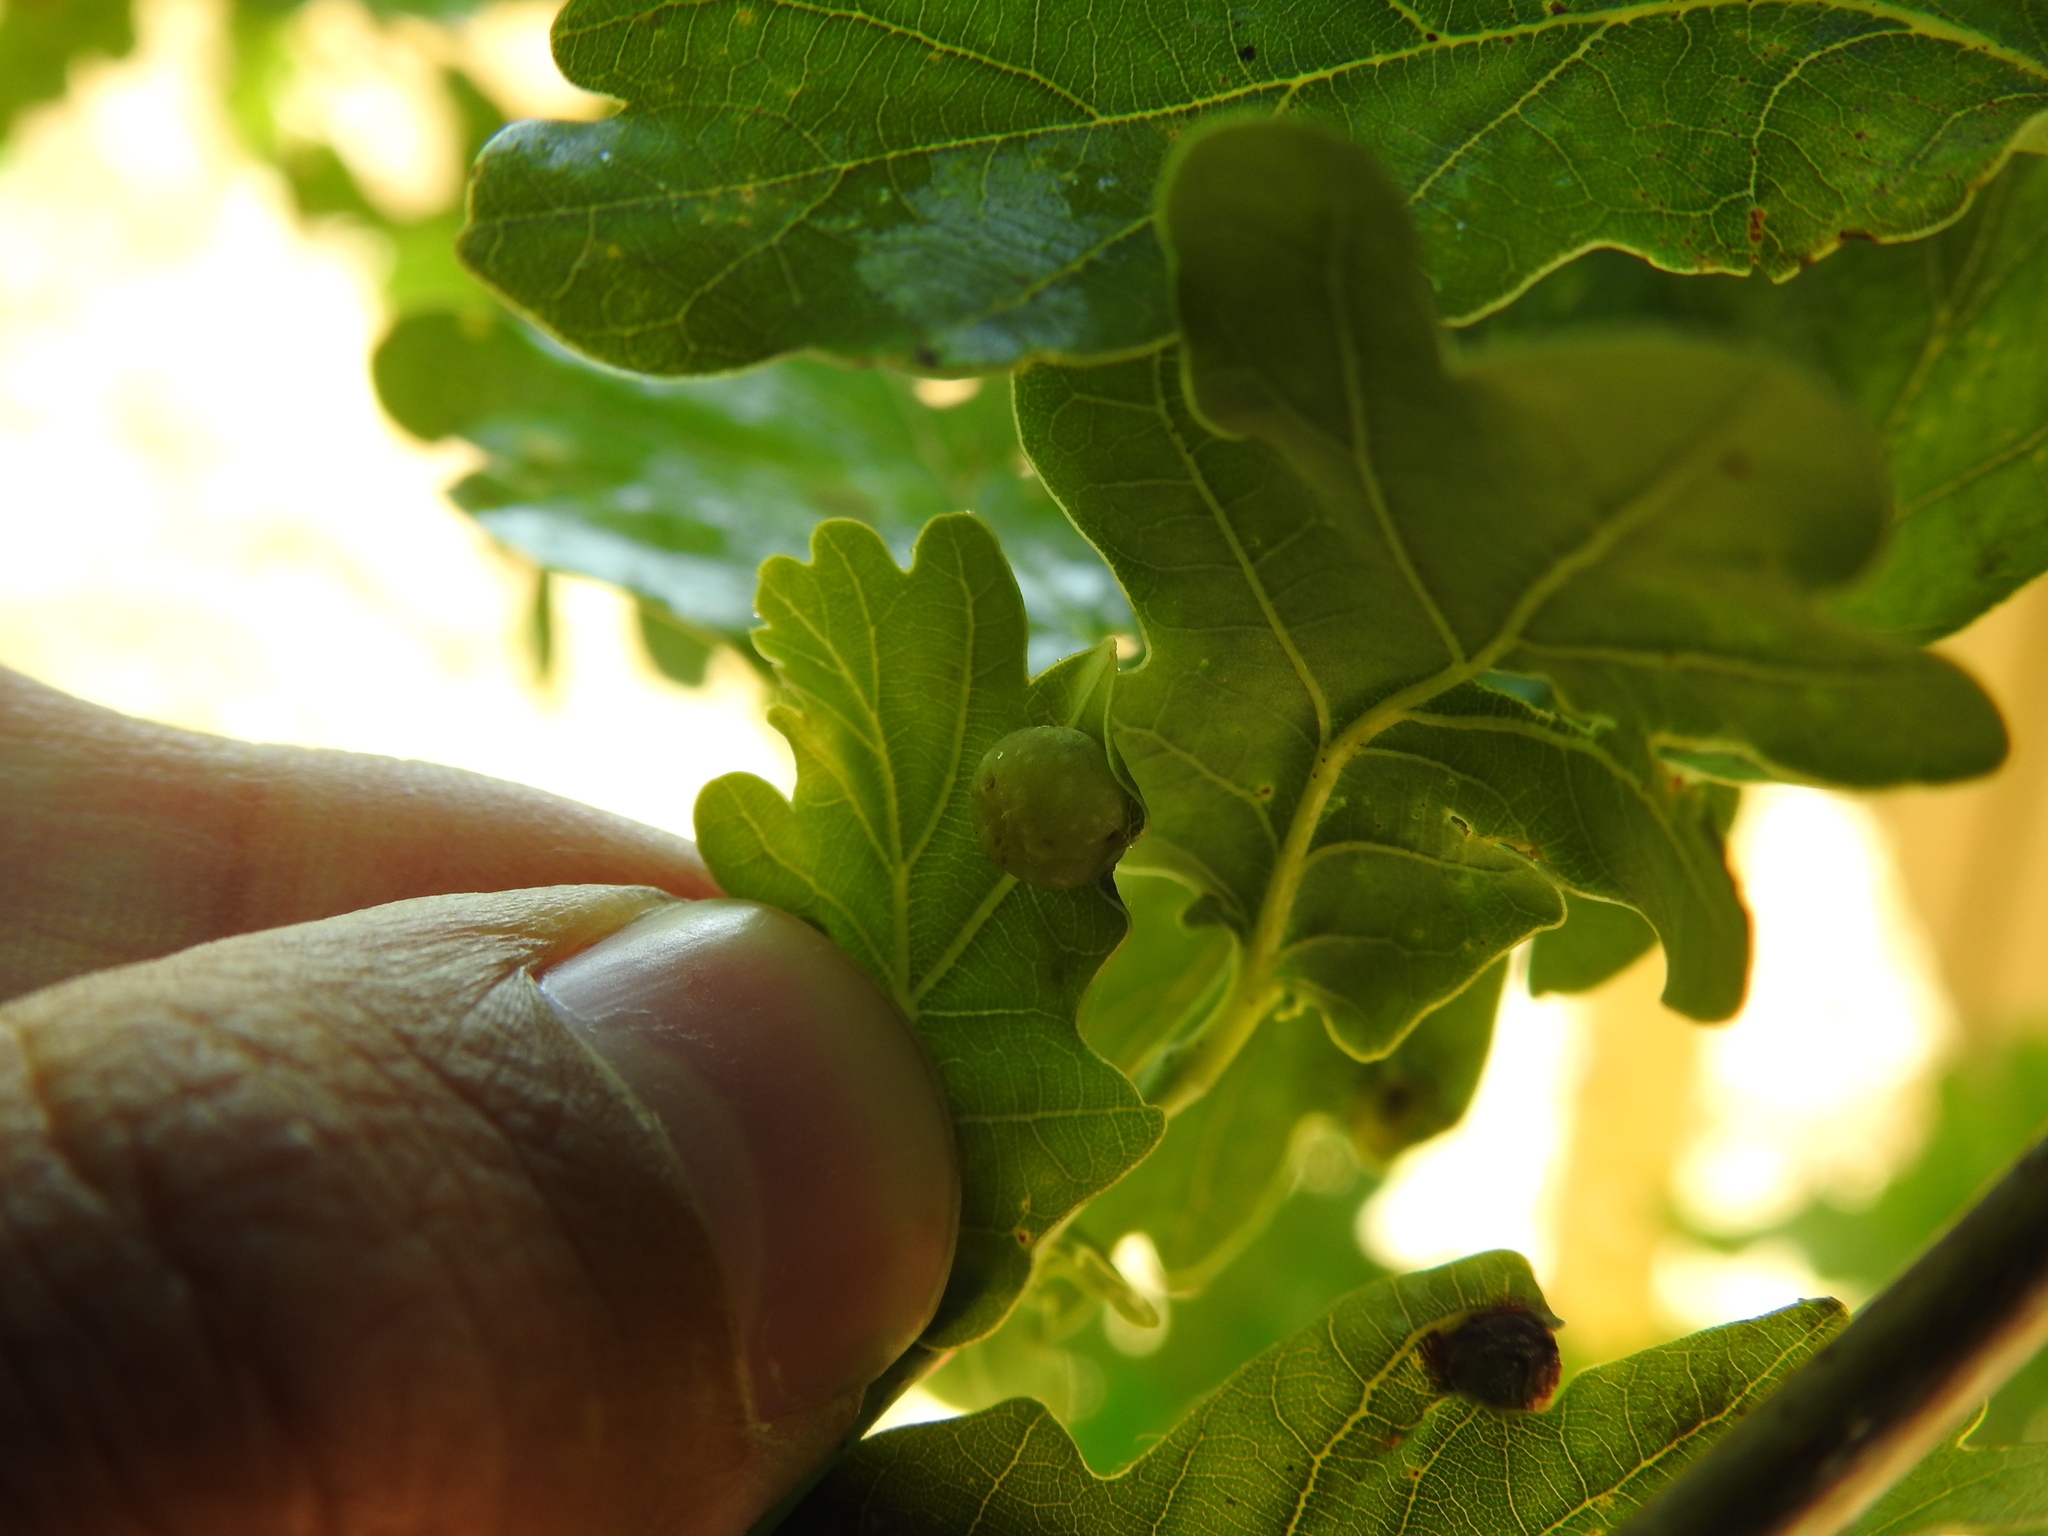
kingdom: Animalia
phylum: Arthropoda
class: Insecta
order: Hymenoptera
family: Cynipidae
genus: Neuroterus
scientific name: Neuroterus quercusbaccarum
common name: Common spangle gall
